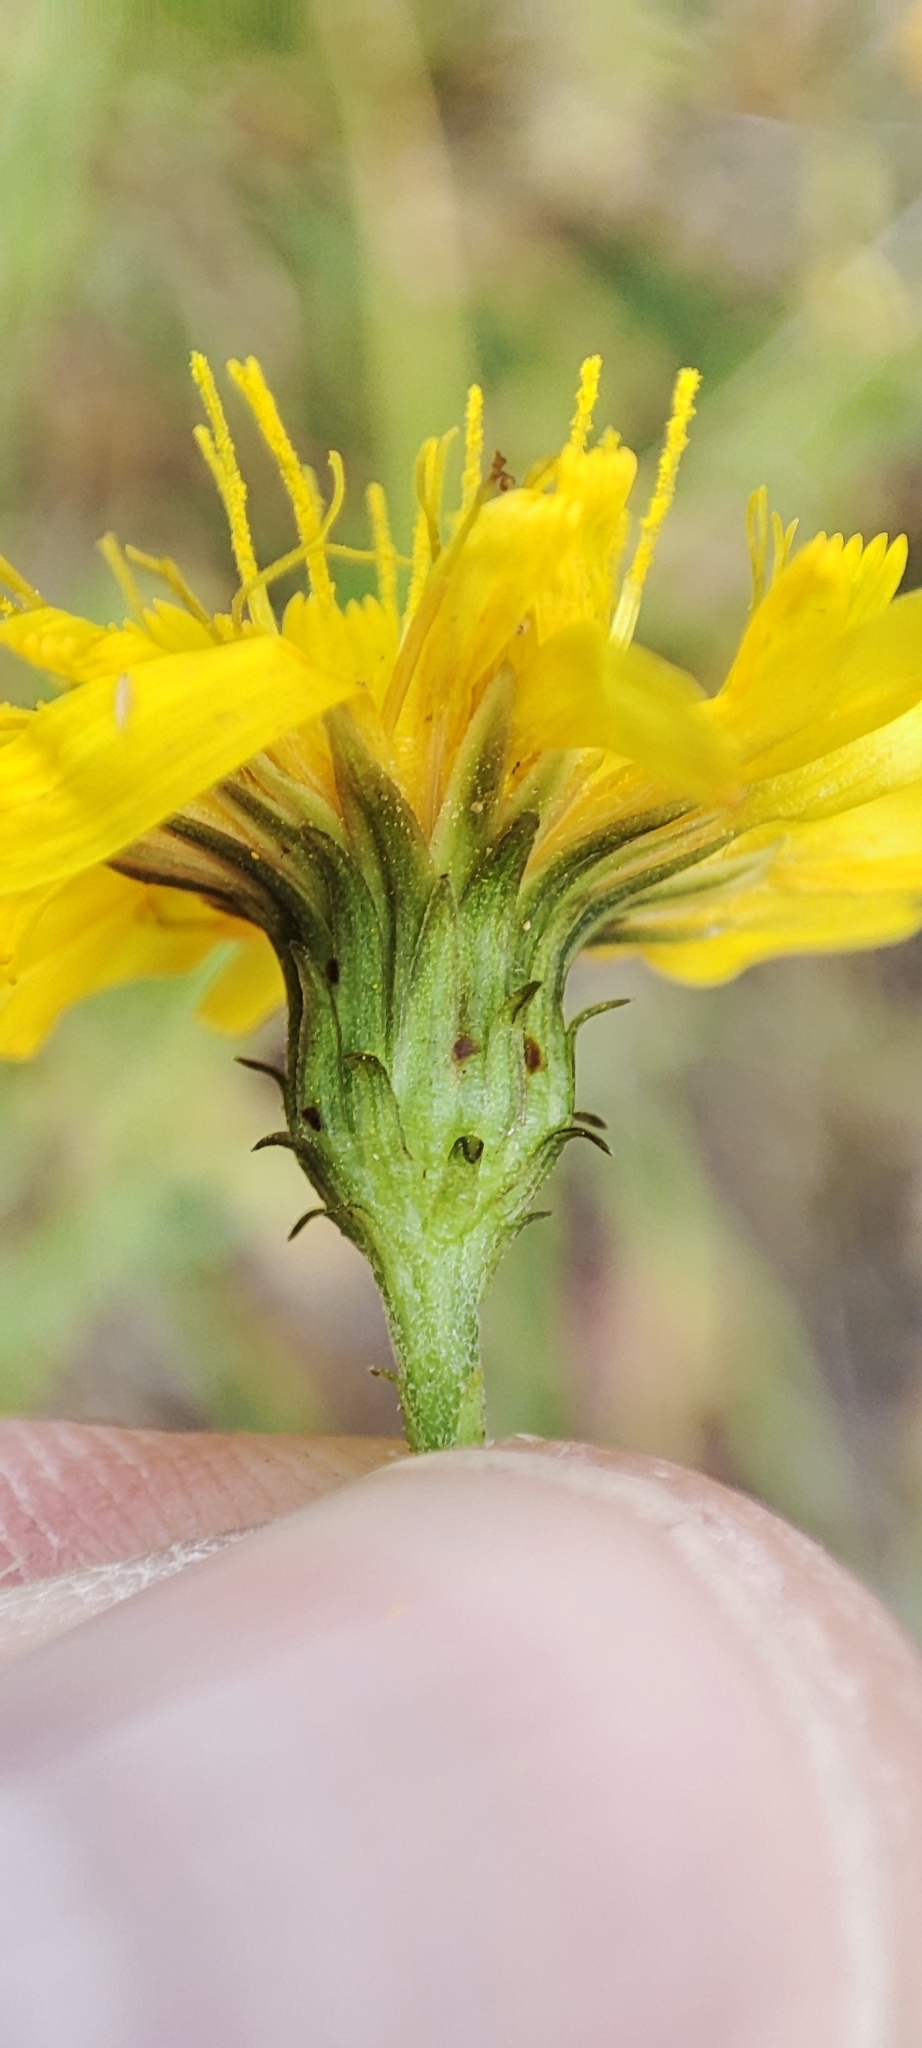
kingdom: Plantae
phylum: Tracheophyta
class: Magnoliopsida
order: Asterales
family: Asteraceae
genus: Hieracium
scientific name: Hieracium umbellatum
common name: Northern hawkweed
